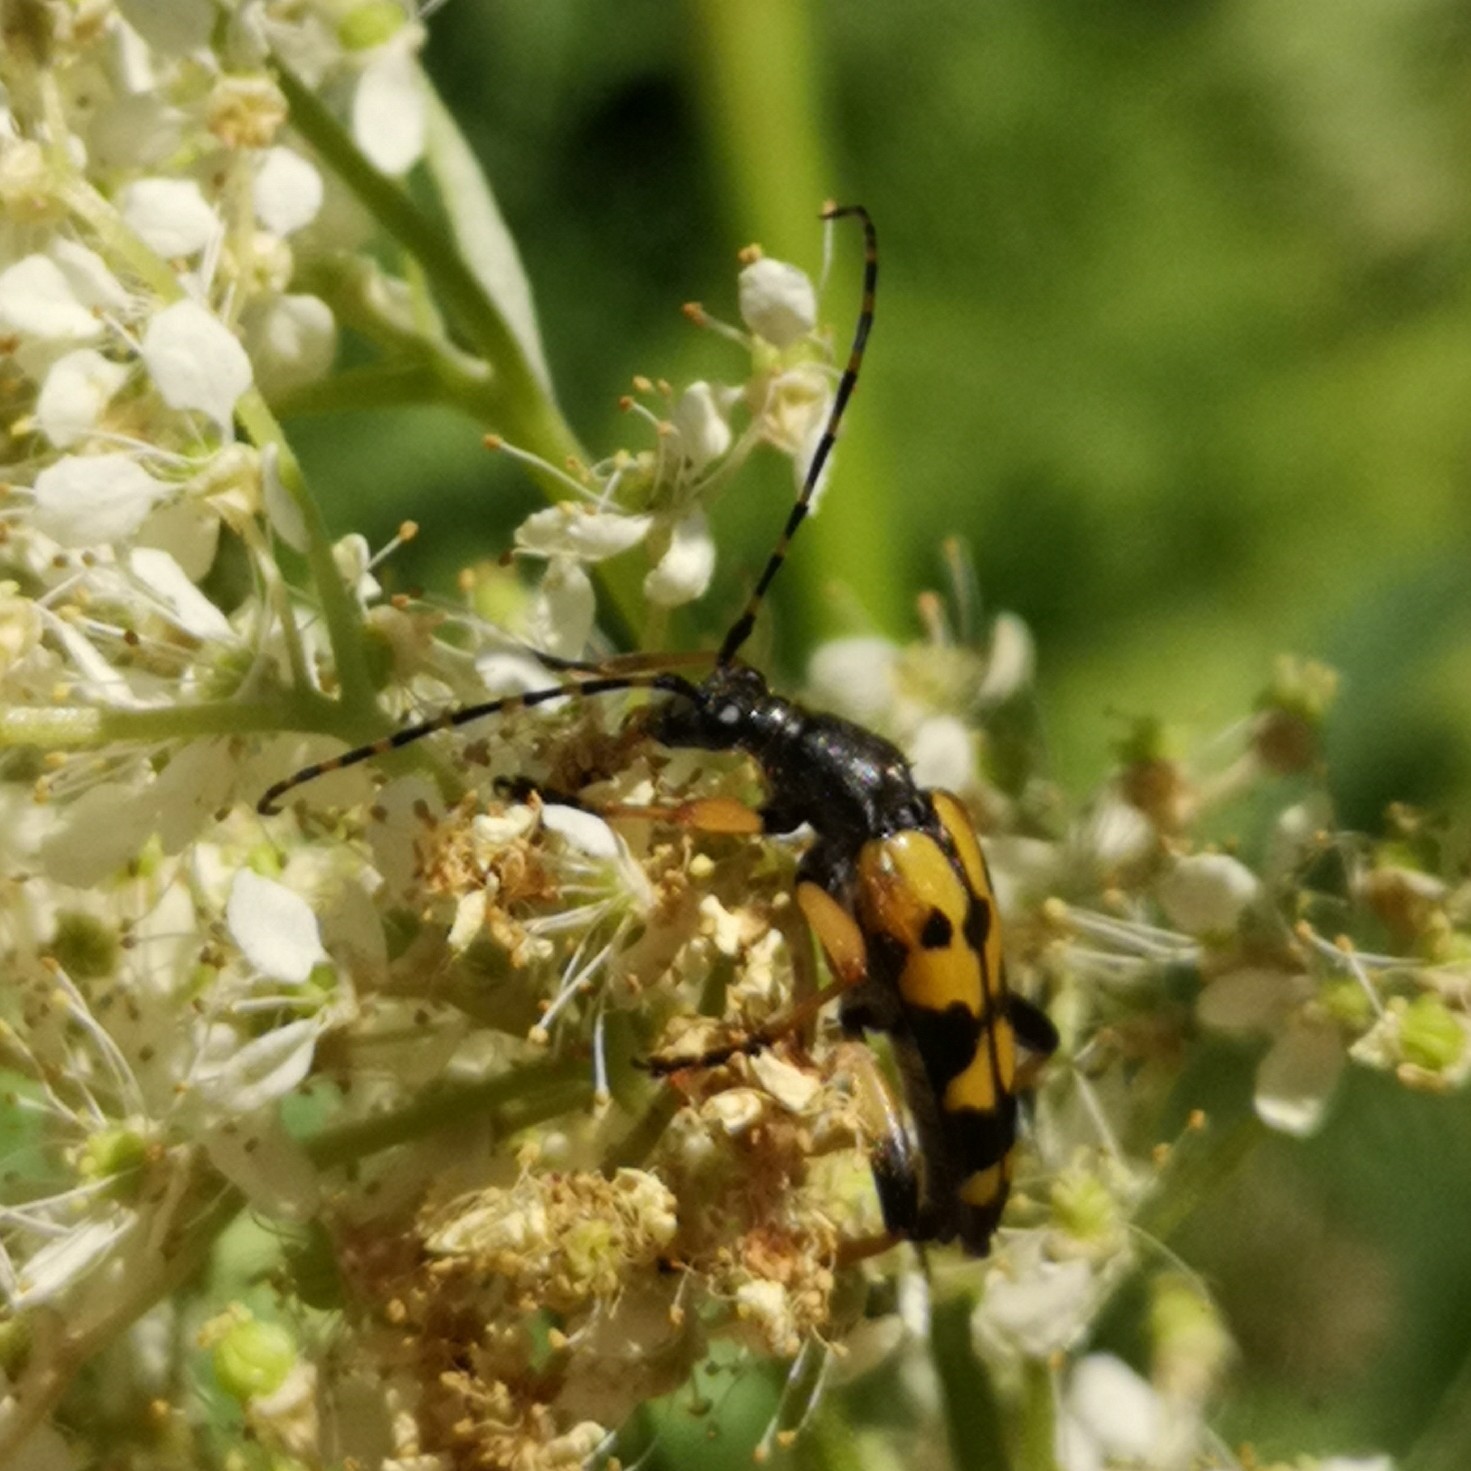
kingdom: Animalia
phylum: Arthropoda
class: Insecta
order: Coleoptera
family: Cerambycidae
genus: Rutpela
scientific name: Rutpela maculata
